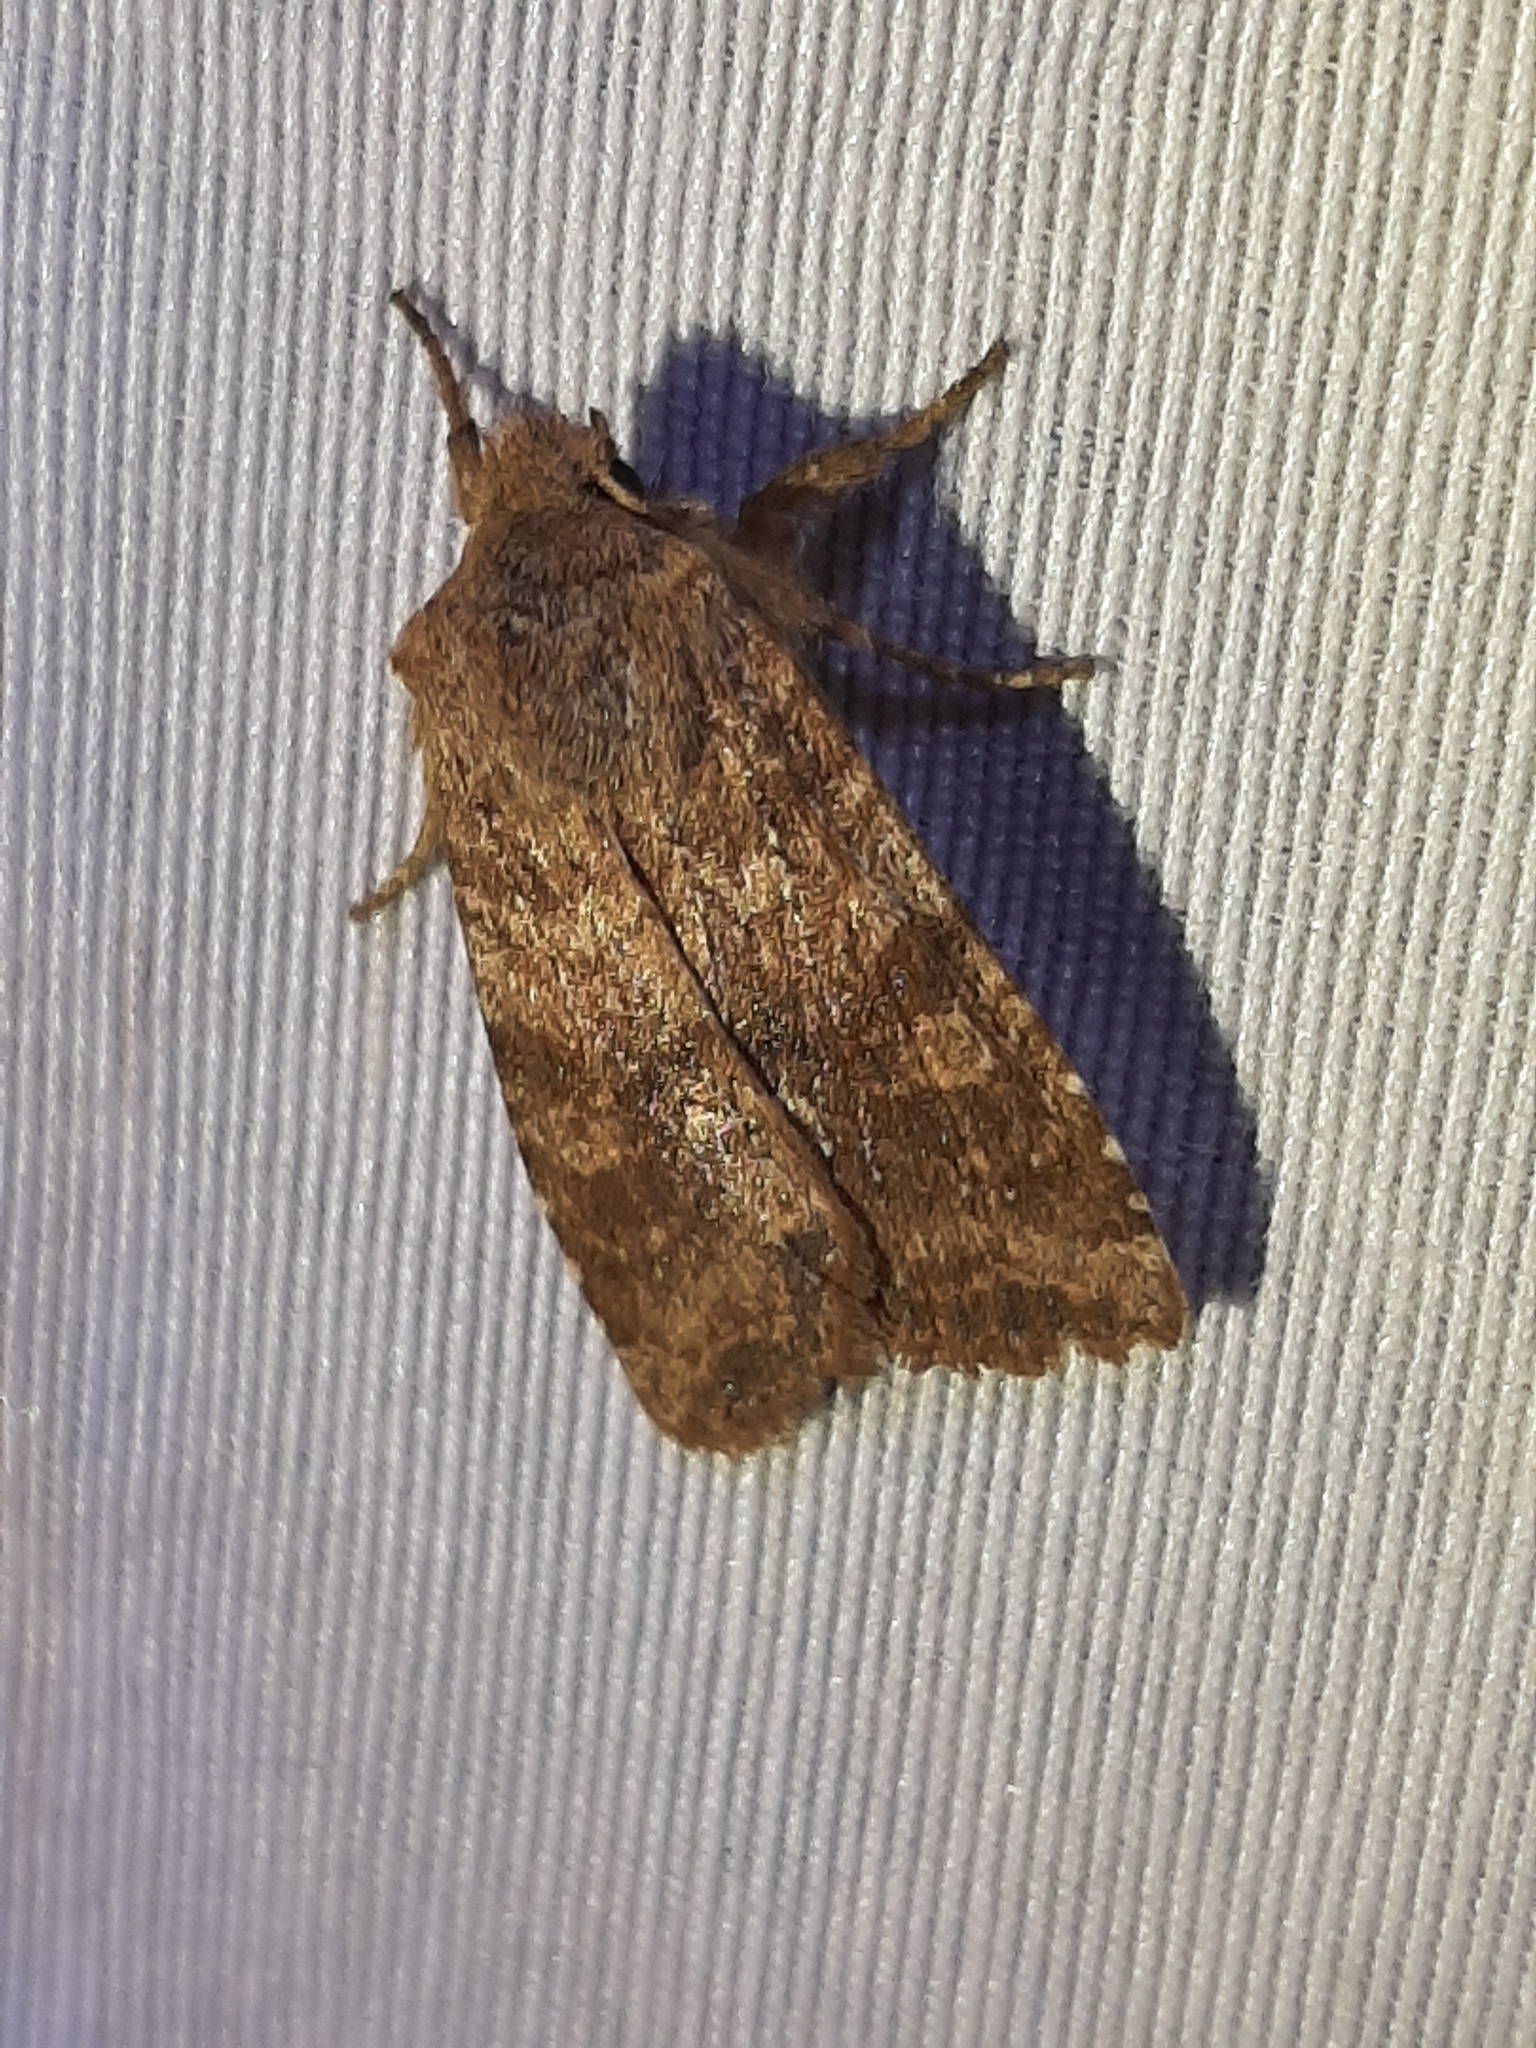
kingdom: Animalia
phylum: Arthropoda
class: Insecta
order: Lepidoptera
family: Noctuidae
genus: Lithophane
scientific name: Lithophane semiusta
